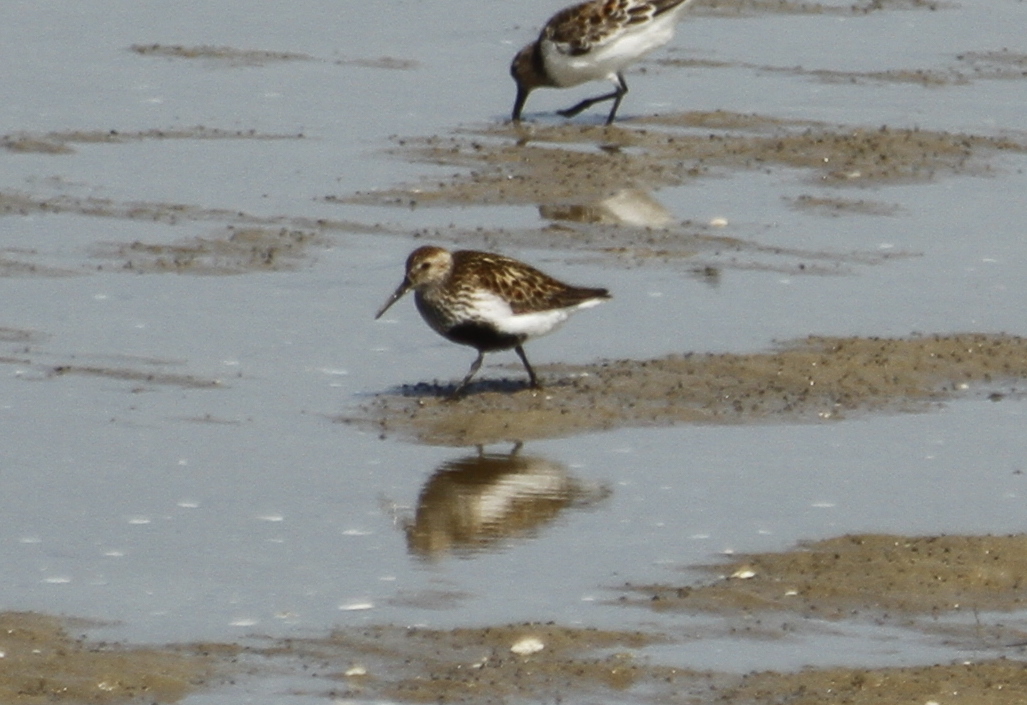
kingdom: Animalia
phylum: Chordata
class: Aves
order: Charadriiformes
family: Scolopacidae
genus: Calidris
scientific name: Calidris alpina
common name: Dunlin
